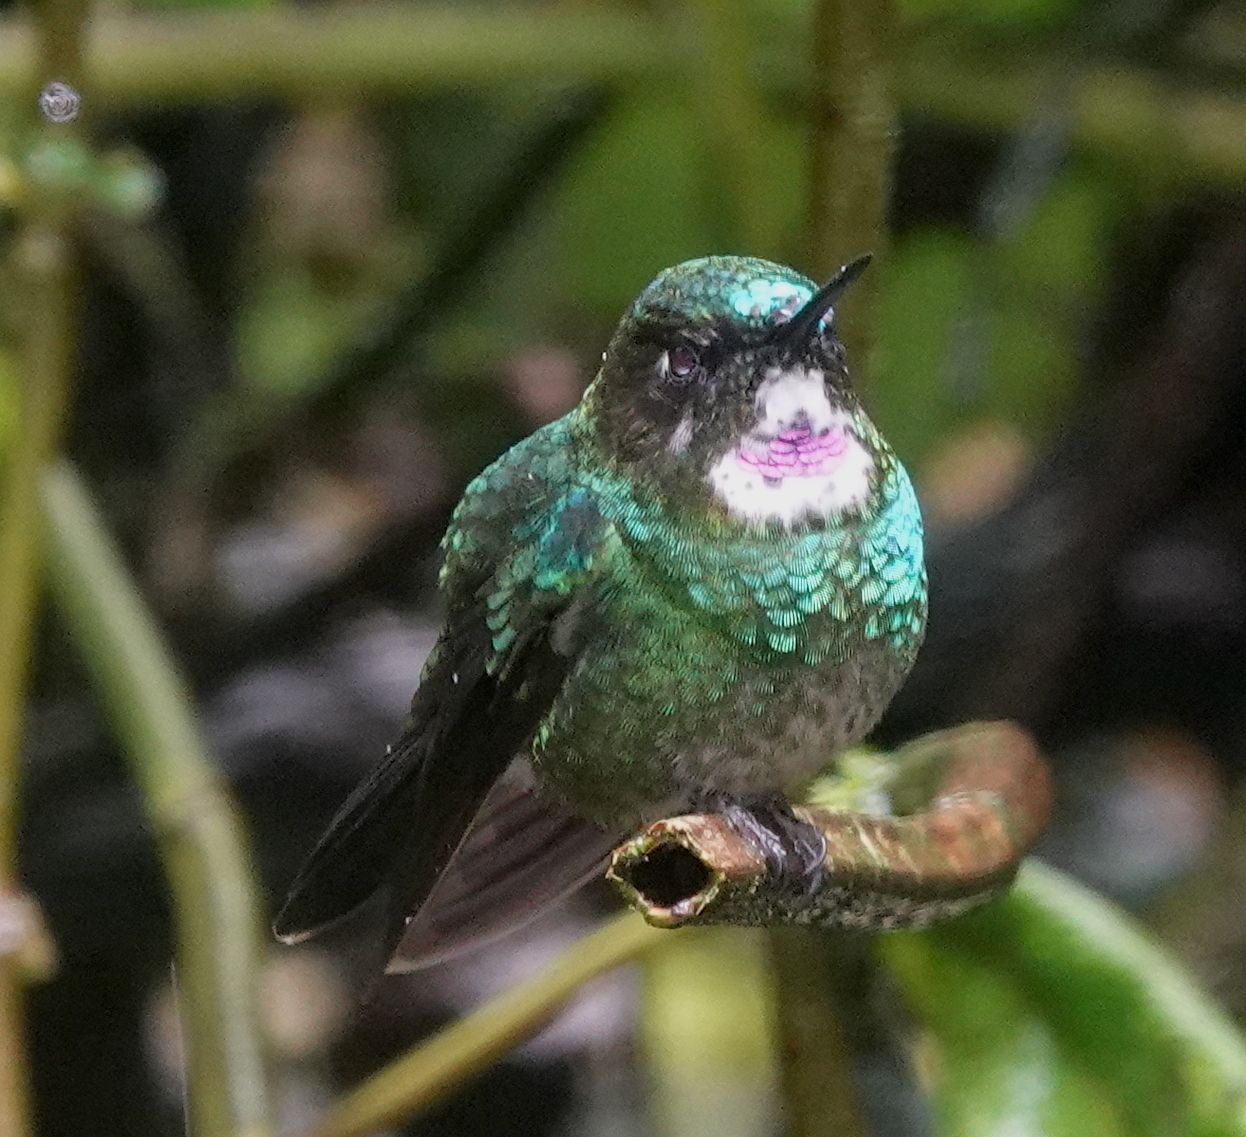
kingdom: Animalia
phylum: Chordata
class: Aves
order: Apodiformes
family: Trochilidae
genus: Heliangelus
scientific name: Heliangelus exortis
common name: Tourmaline sunangel
